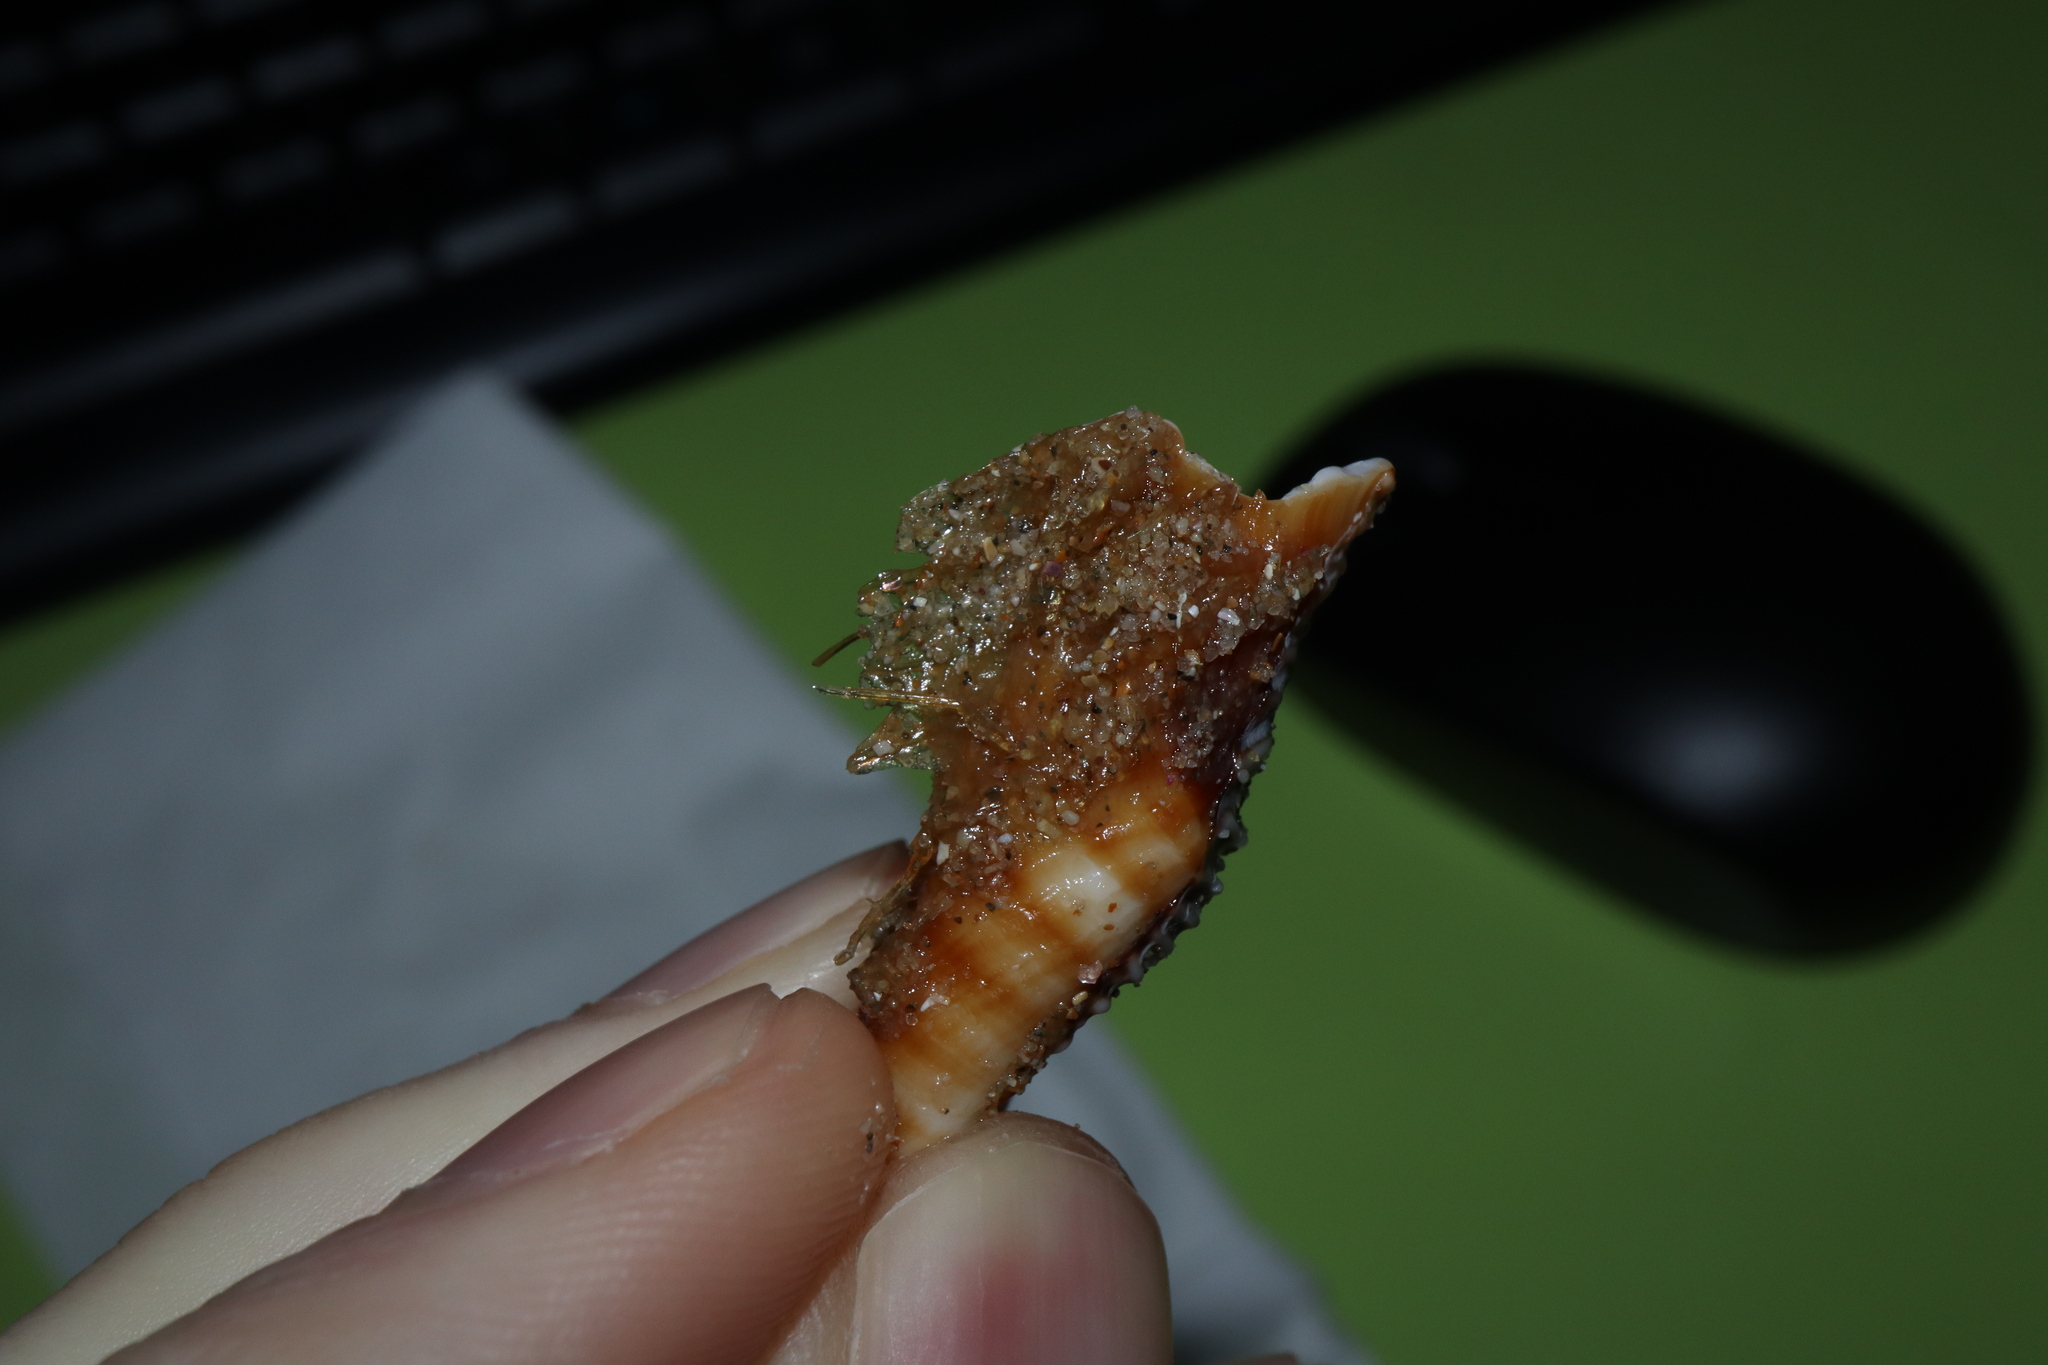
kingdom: Animalia
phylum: Mollusca
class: Gastropoda
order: Littorinimorpha
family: Cymatiidae
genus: Monoplex
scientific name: Monoplex parthenopeus
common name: Giant triton
